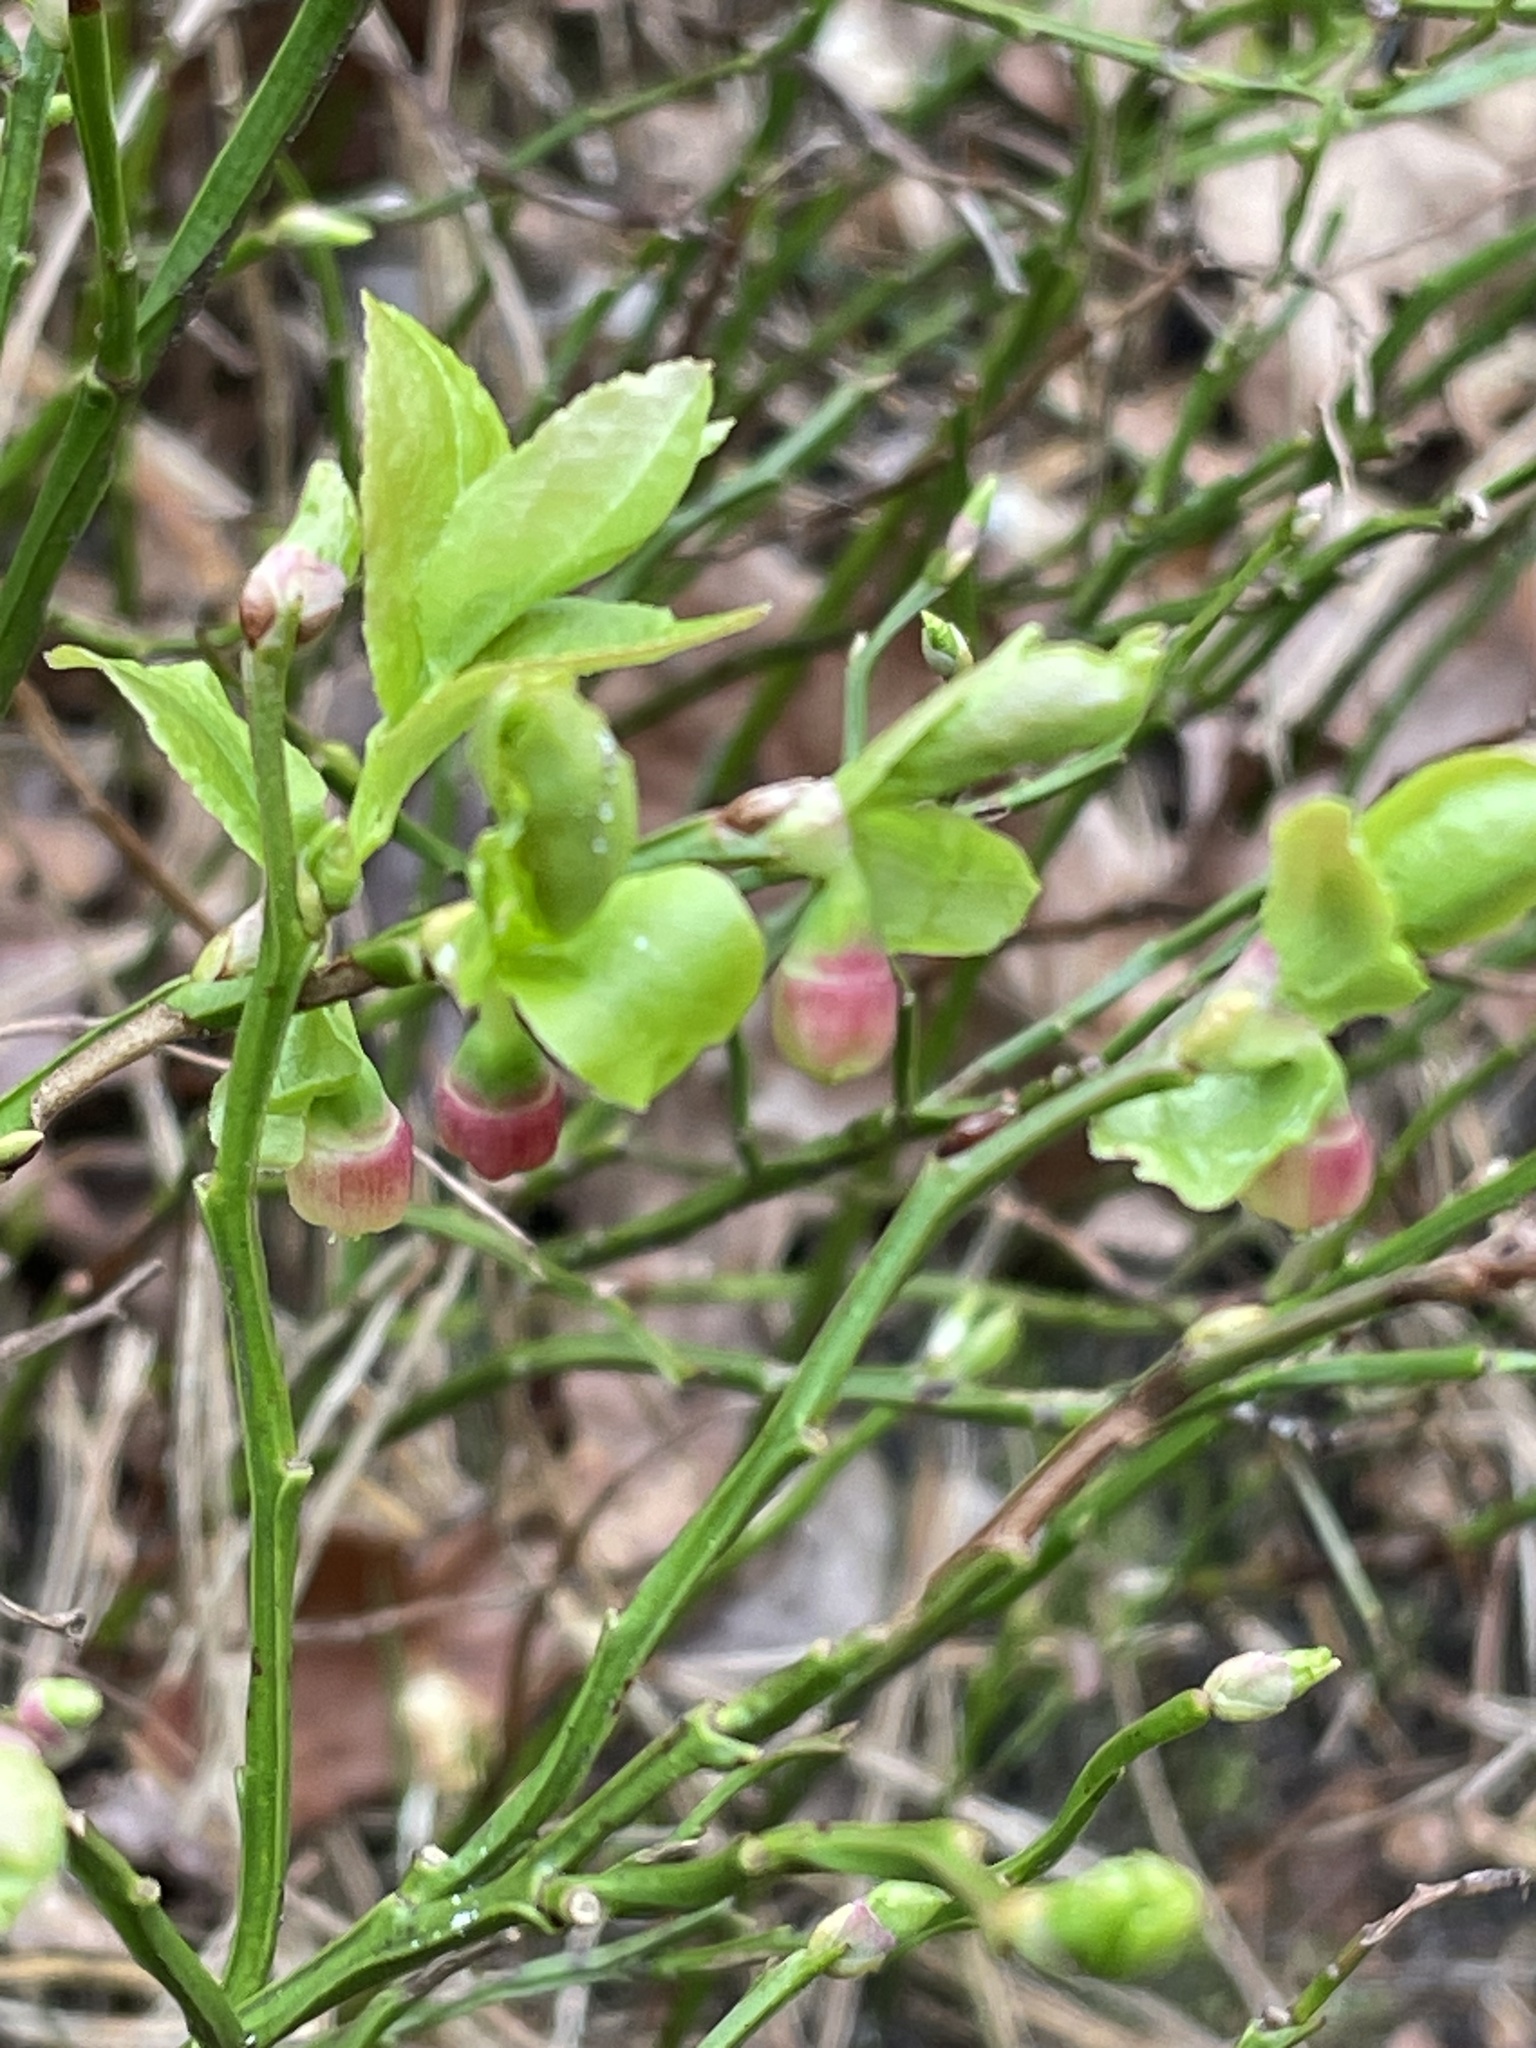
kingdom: Plantae
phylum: Tracheophyta
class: Magnoliopsida
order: Ericales
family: Ericaceae
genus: Vaccinium
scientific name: Vaccinium myrtillus
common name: Bilberry
